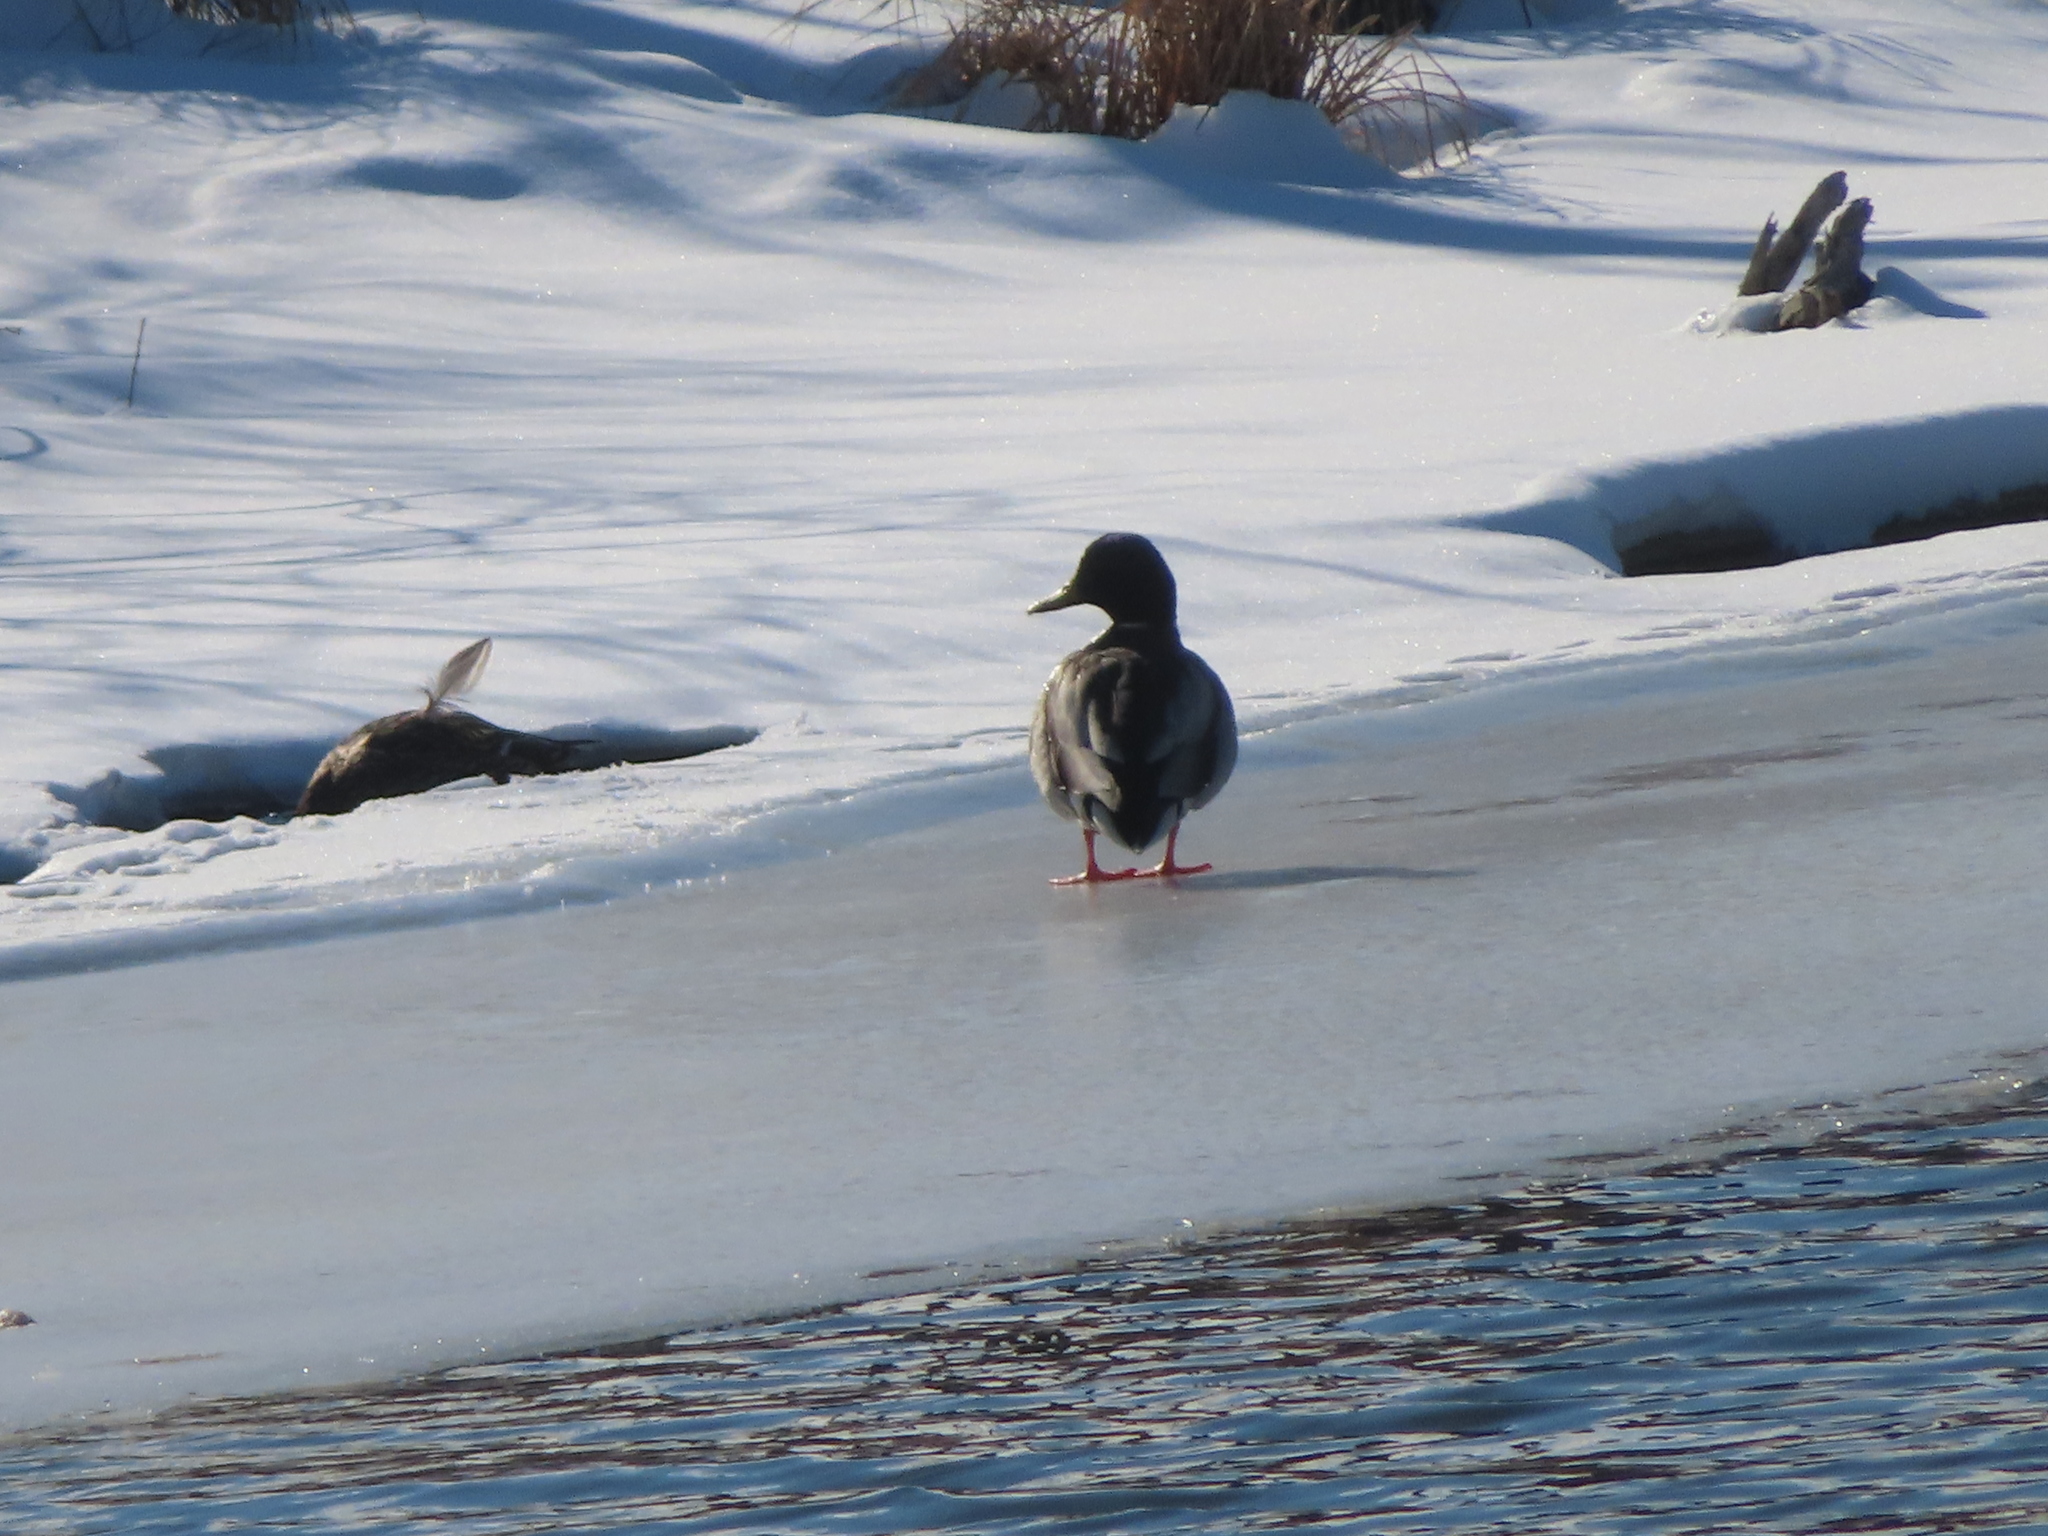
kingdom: Animalia
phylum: Chordata
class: Aves
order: Anseriformes
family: Anatidae
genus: Anas
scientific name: Anas platyrhynchos
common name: Mallard
